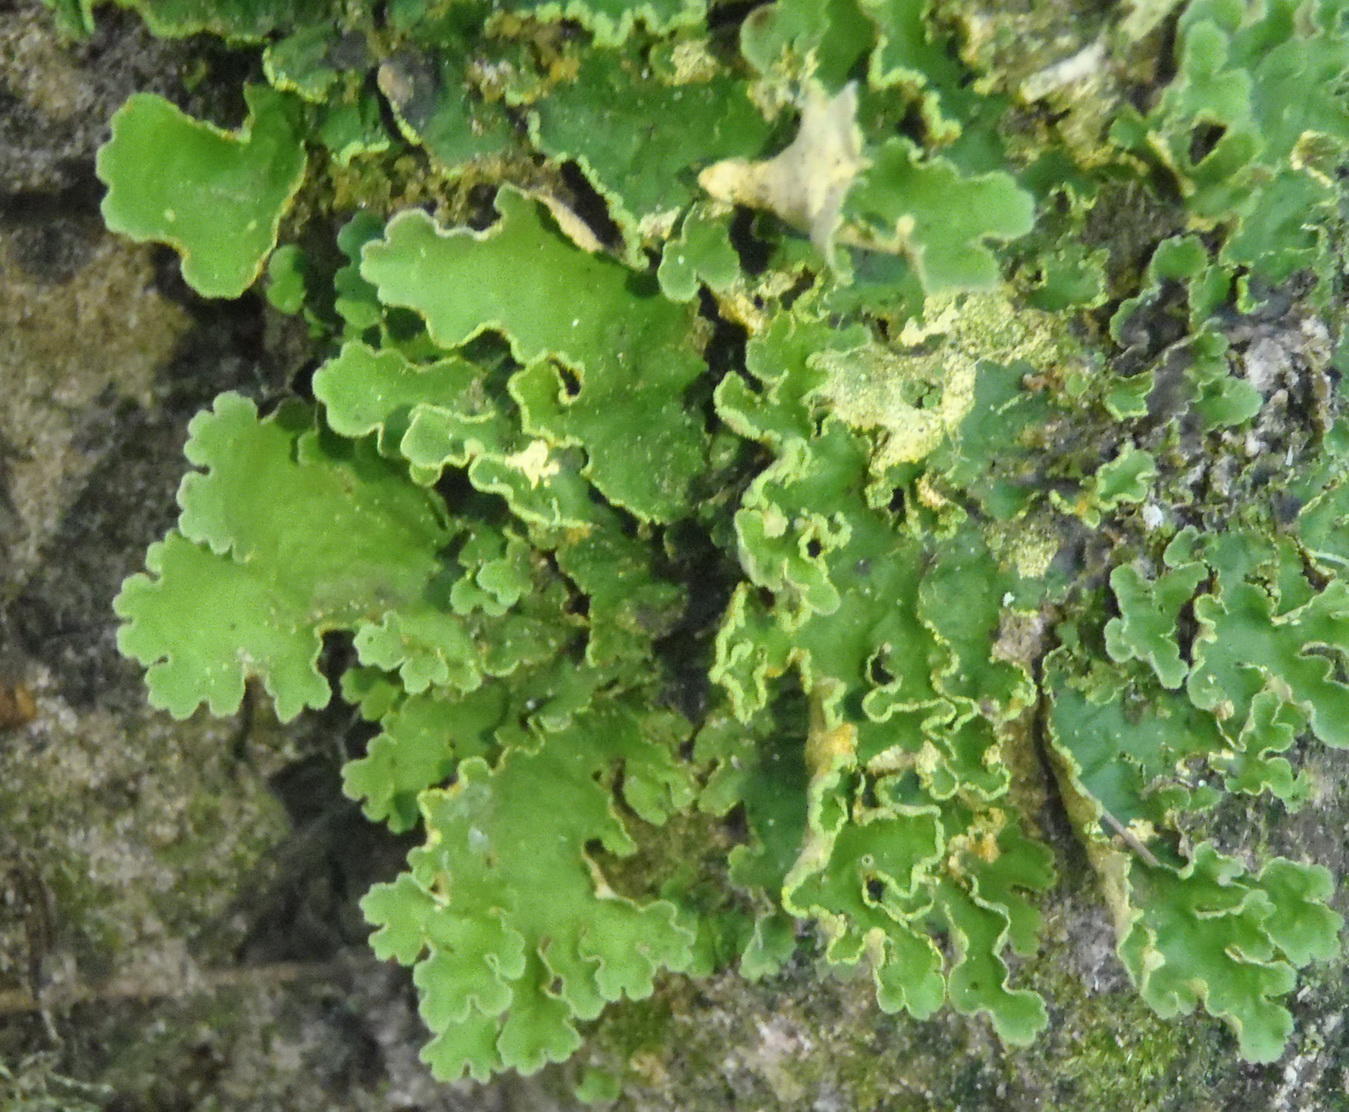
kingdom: Fungi
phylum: Ascomycota
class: Lecanoromycetes
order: Peltigerales
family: Lobariaceae
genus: Pseudocyphellaria
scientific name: Pseudocyphellaria aurata
